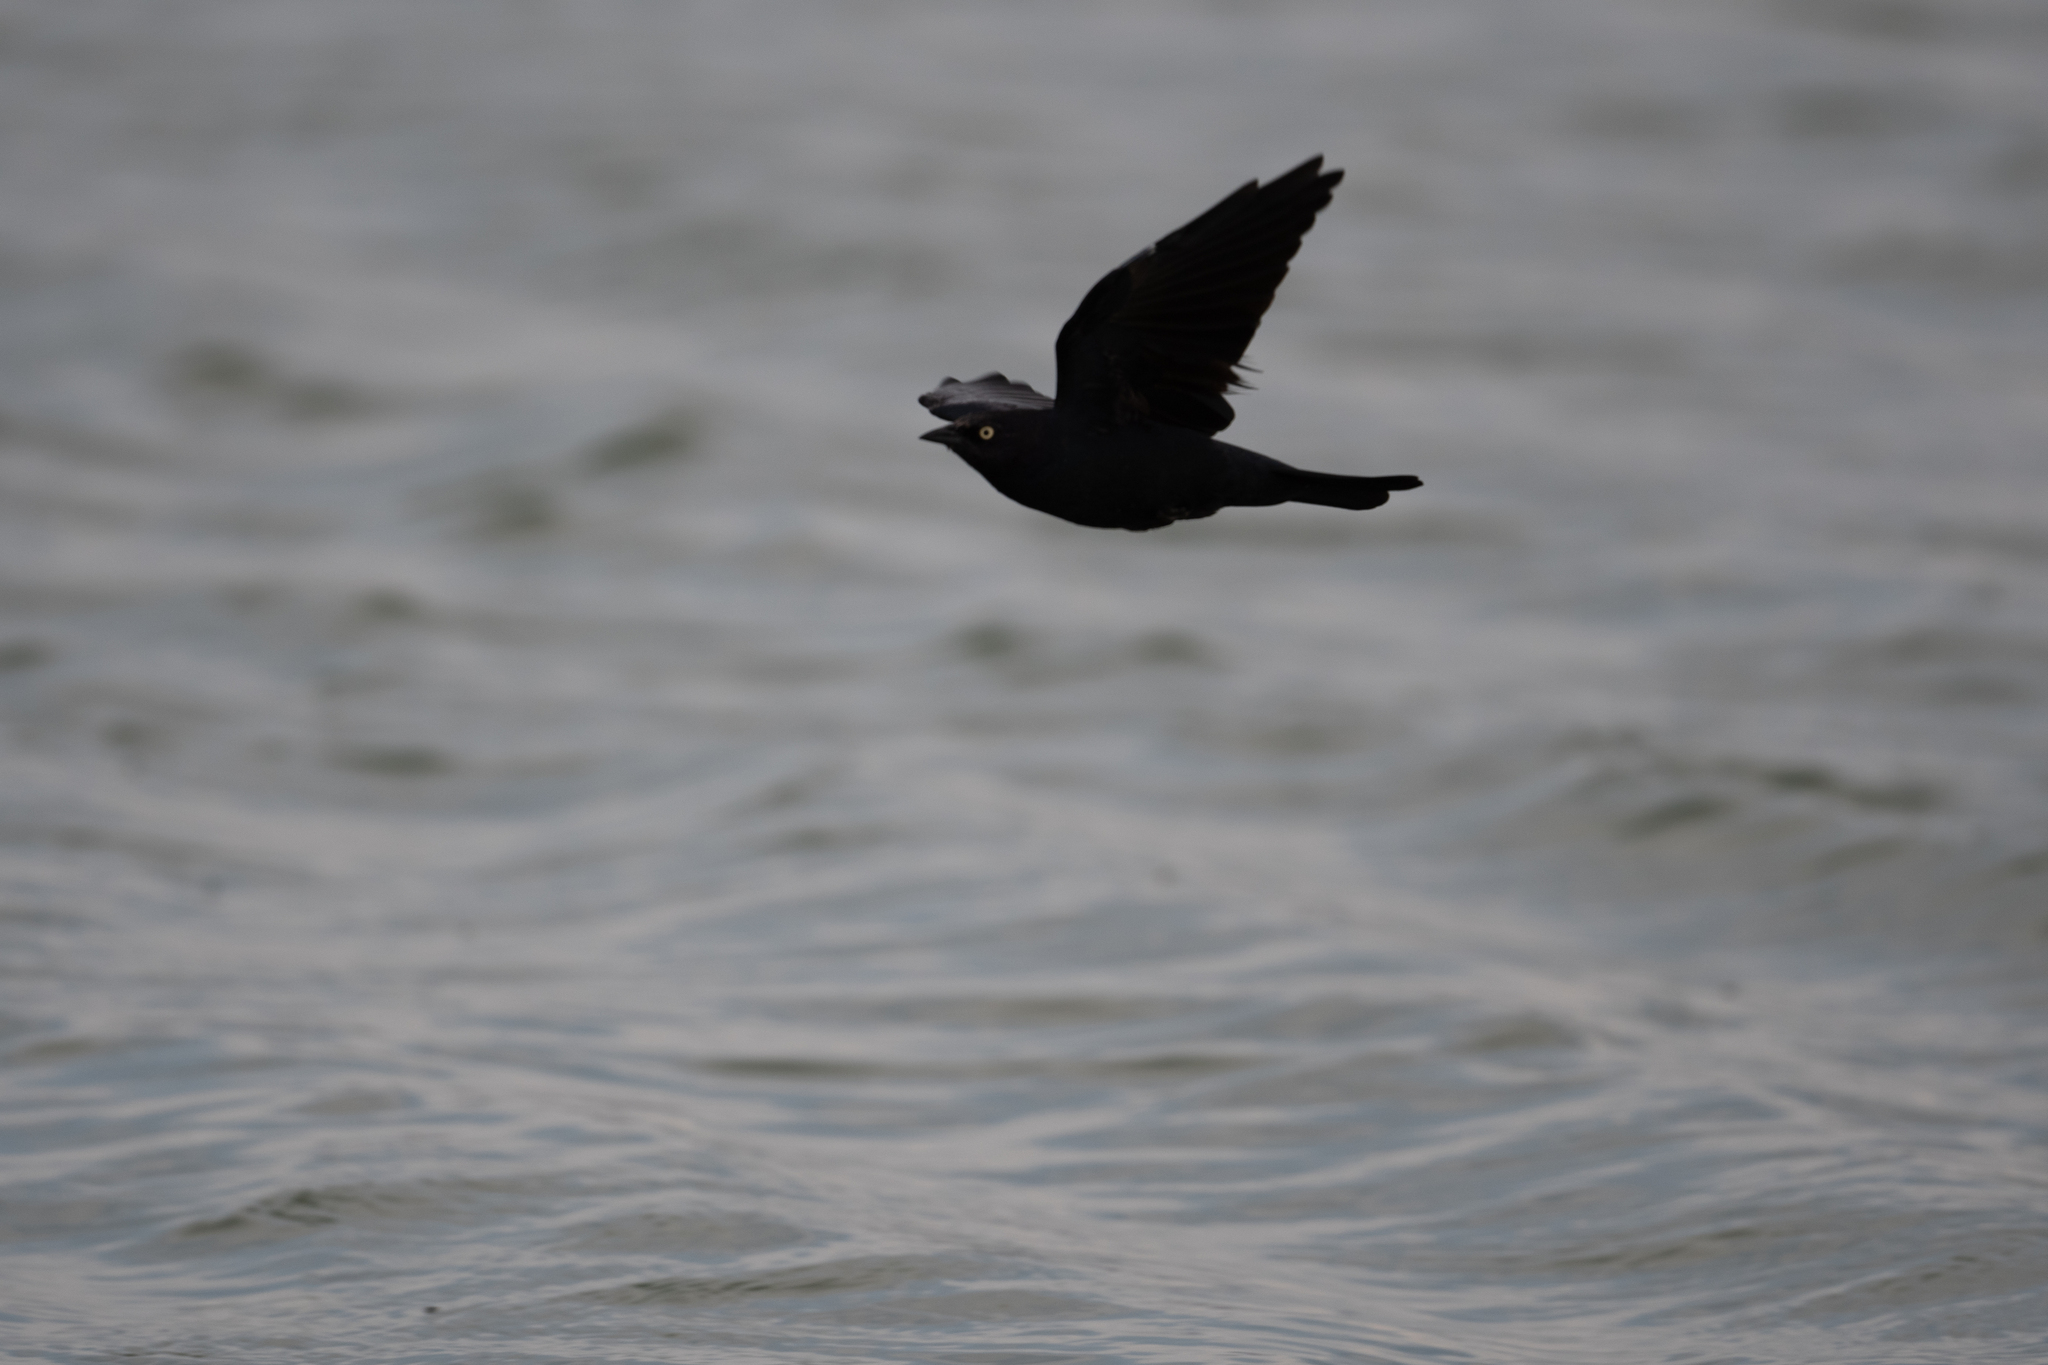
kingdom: Animalia
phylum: Chordata
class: Aves
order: Passeriformes
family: Icteridae
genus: Euphagus
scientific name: Euphagus cyanocephalus
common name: Brewer's blackbird
